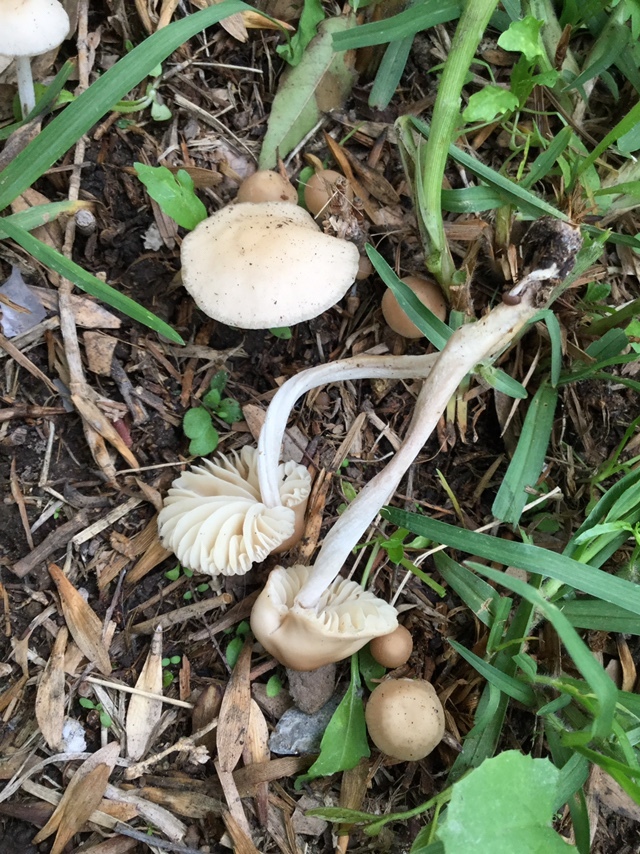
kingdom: Fungi
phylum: Basidiomycota
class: Agaricomycetes
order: Agaricales
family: Marasmiaceae
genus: Marasmius
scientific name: Marasmius oreades
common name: Fairy ring champignon
